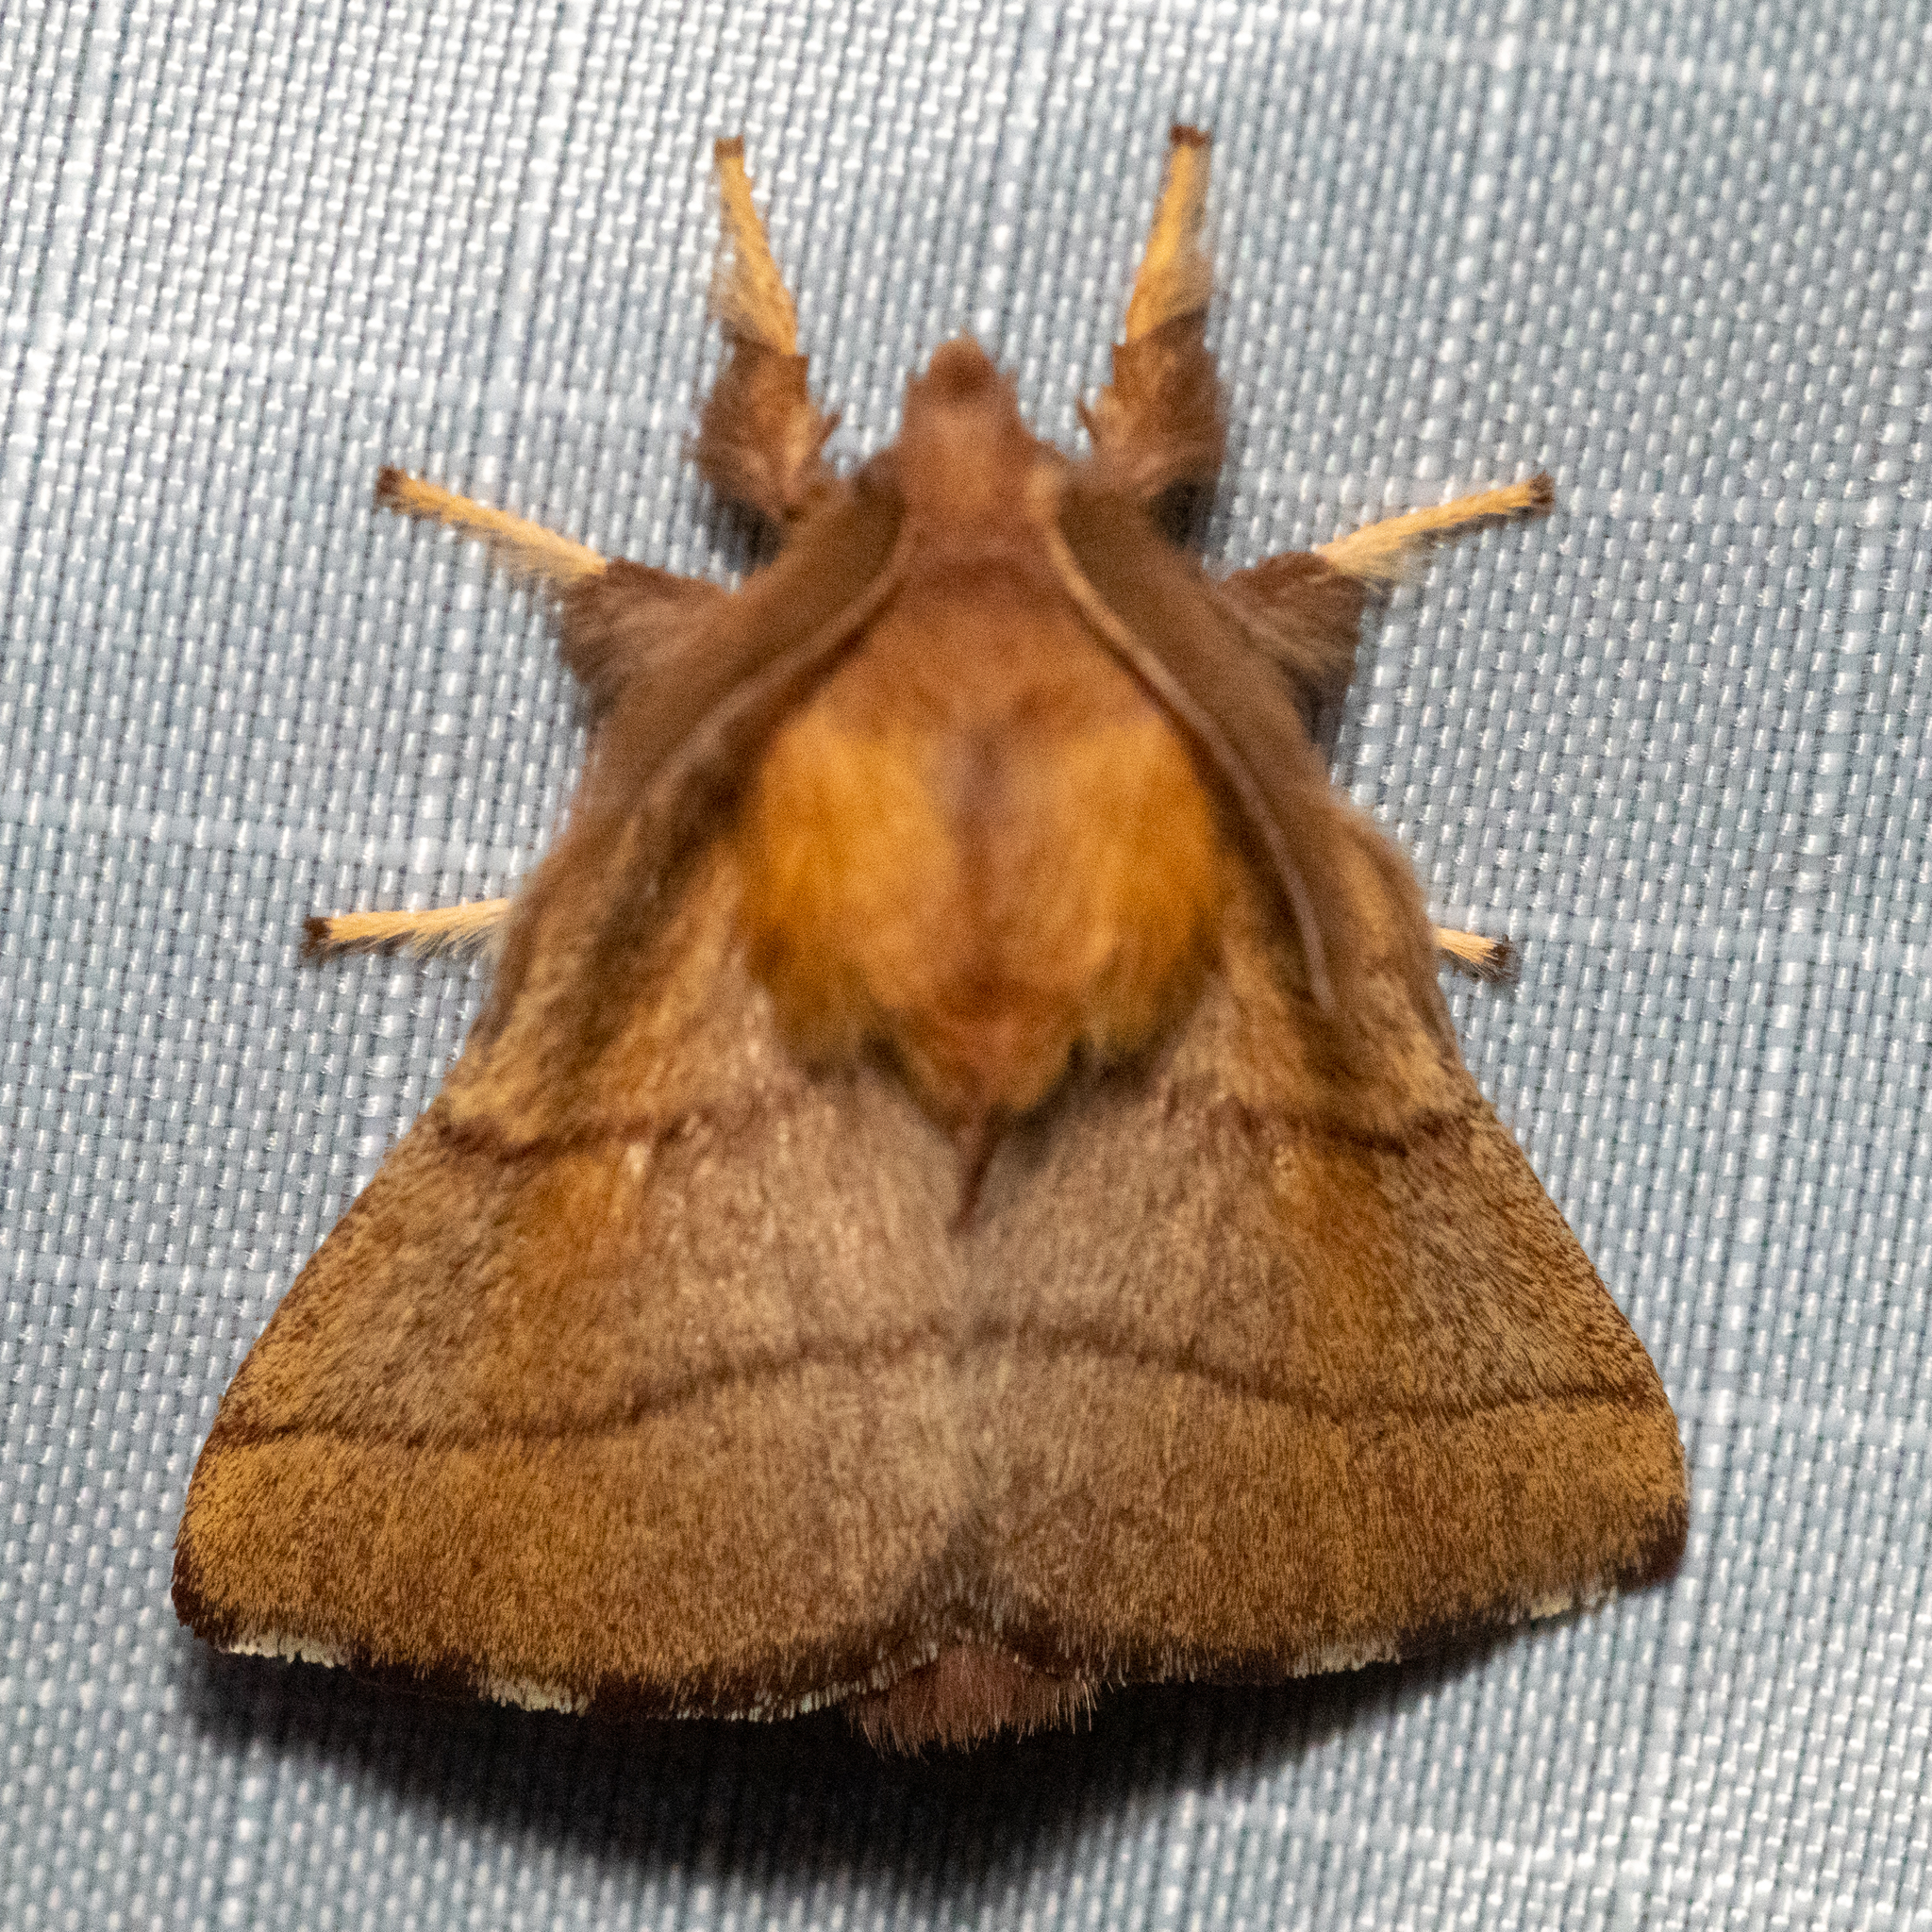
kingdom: Animalia
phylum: Arthropoda
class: Insecta
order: Lepidoptera
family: Lasiocampidae
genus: Malacosoma
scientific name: Malacosoma disstria
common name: Forest tent caterpillar
